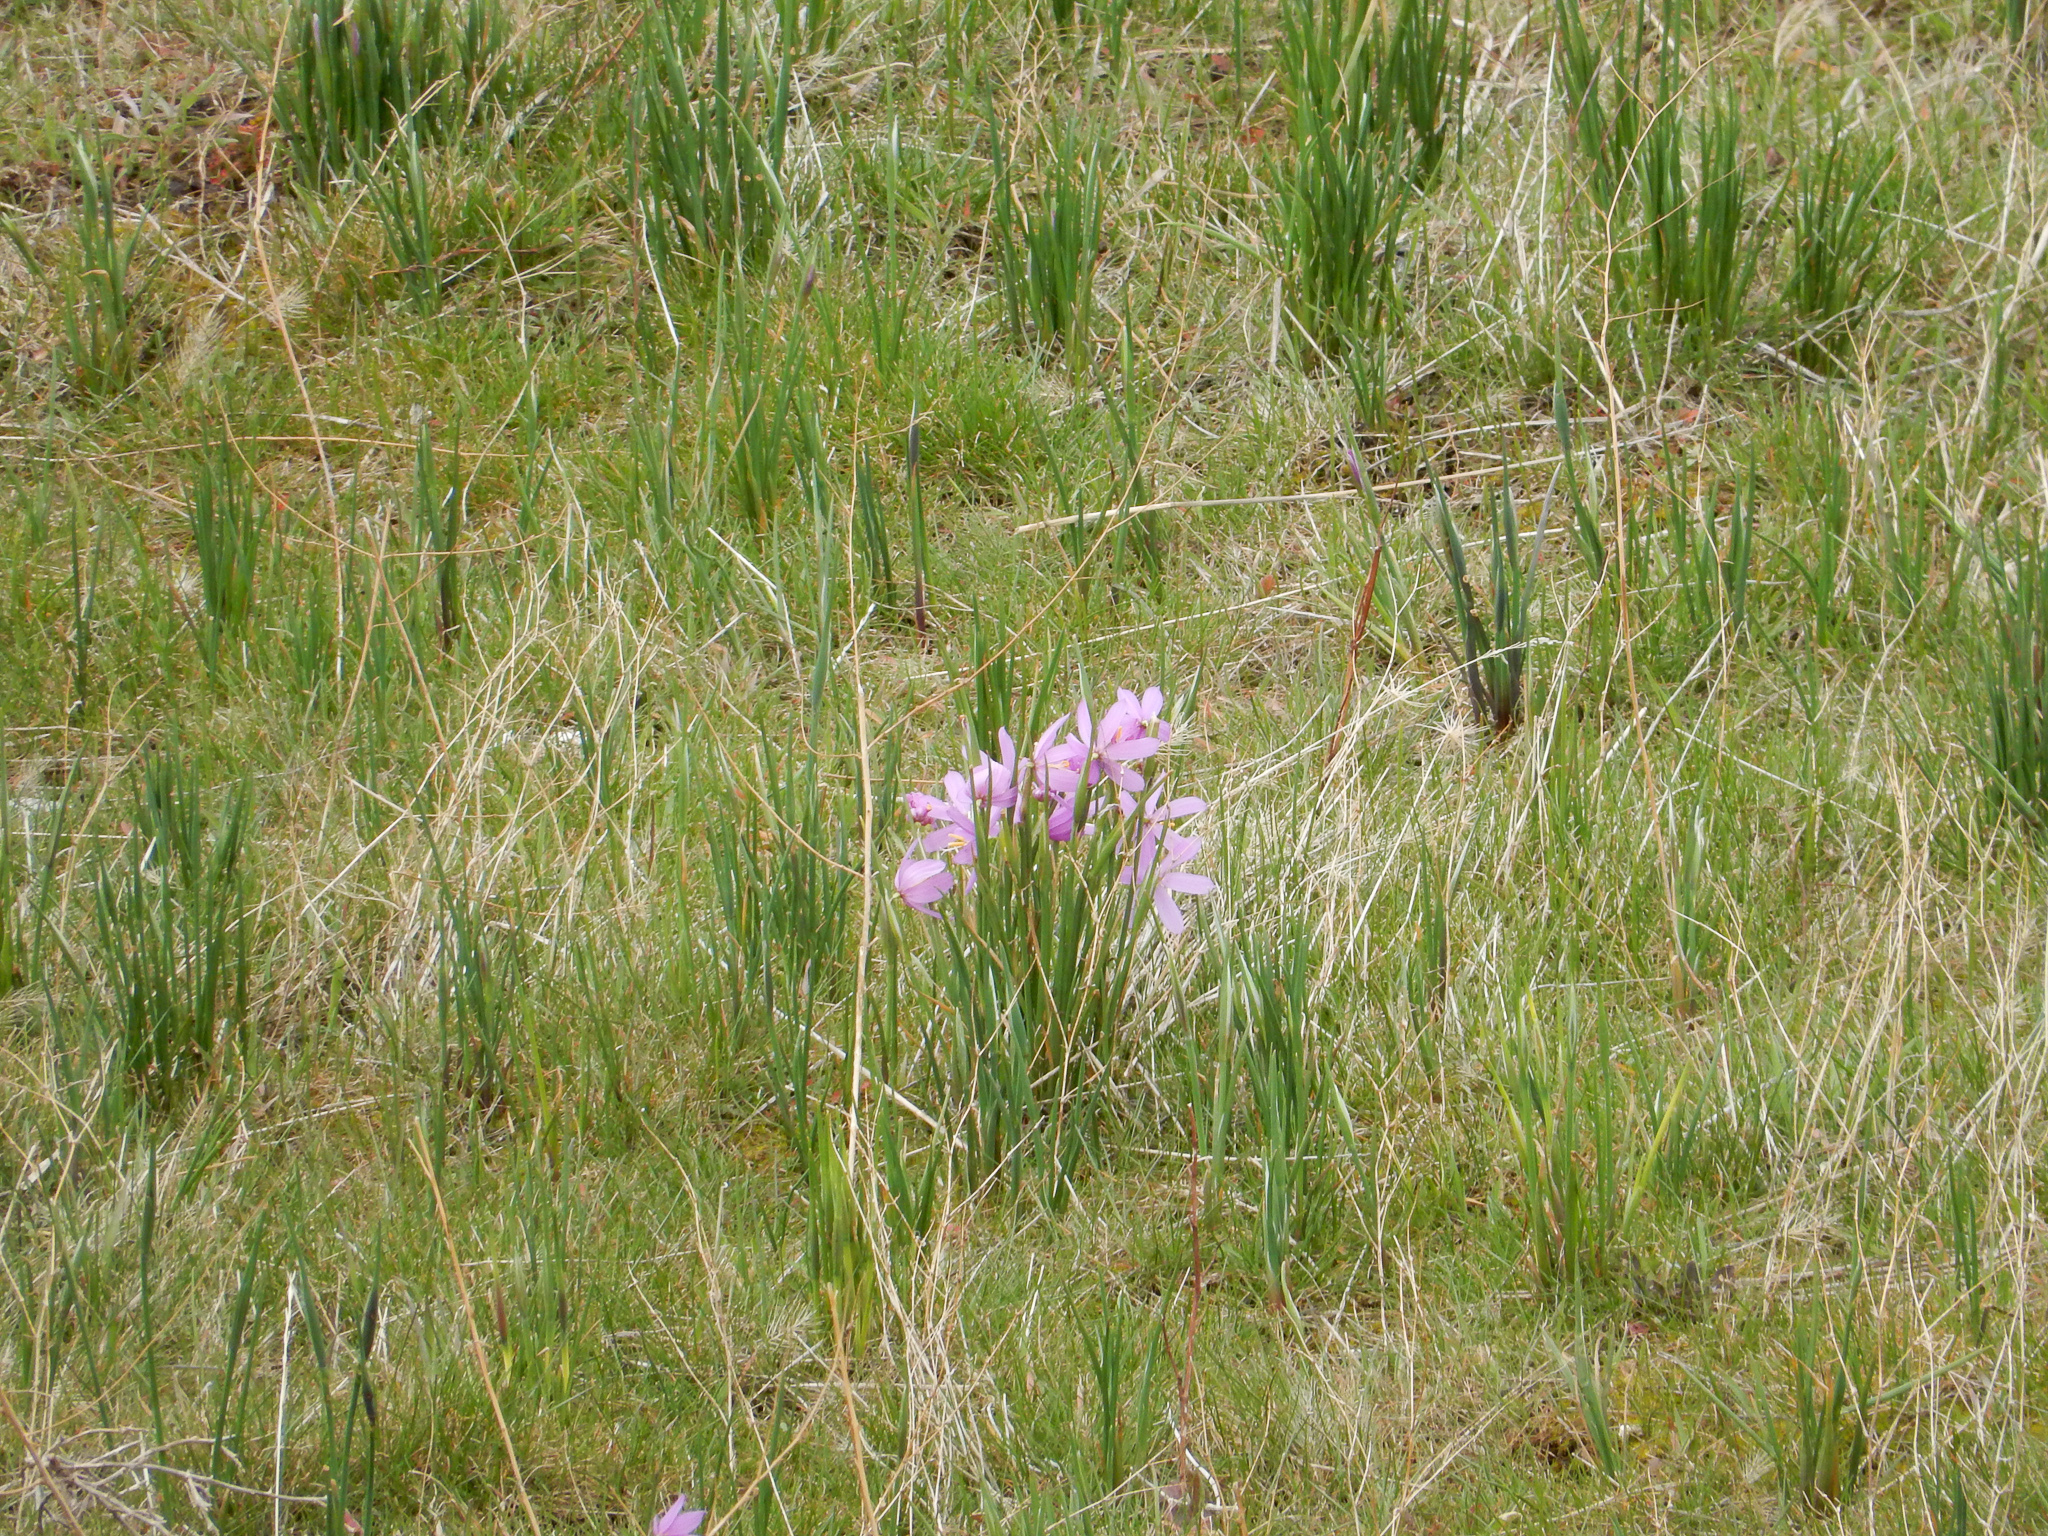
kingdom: Plantae
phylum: Tracheophyta
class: Liliopsida
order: Asparagales
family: Iridaceae
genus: Olsynium
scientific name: Olsynium douglasii
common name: Douglas' grasswidow
